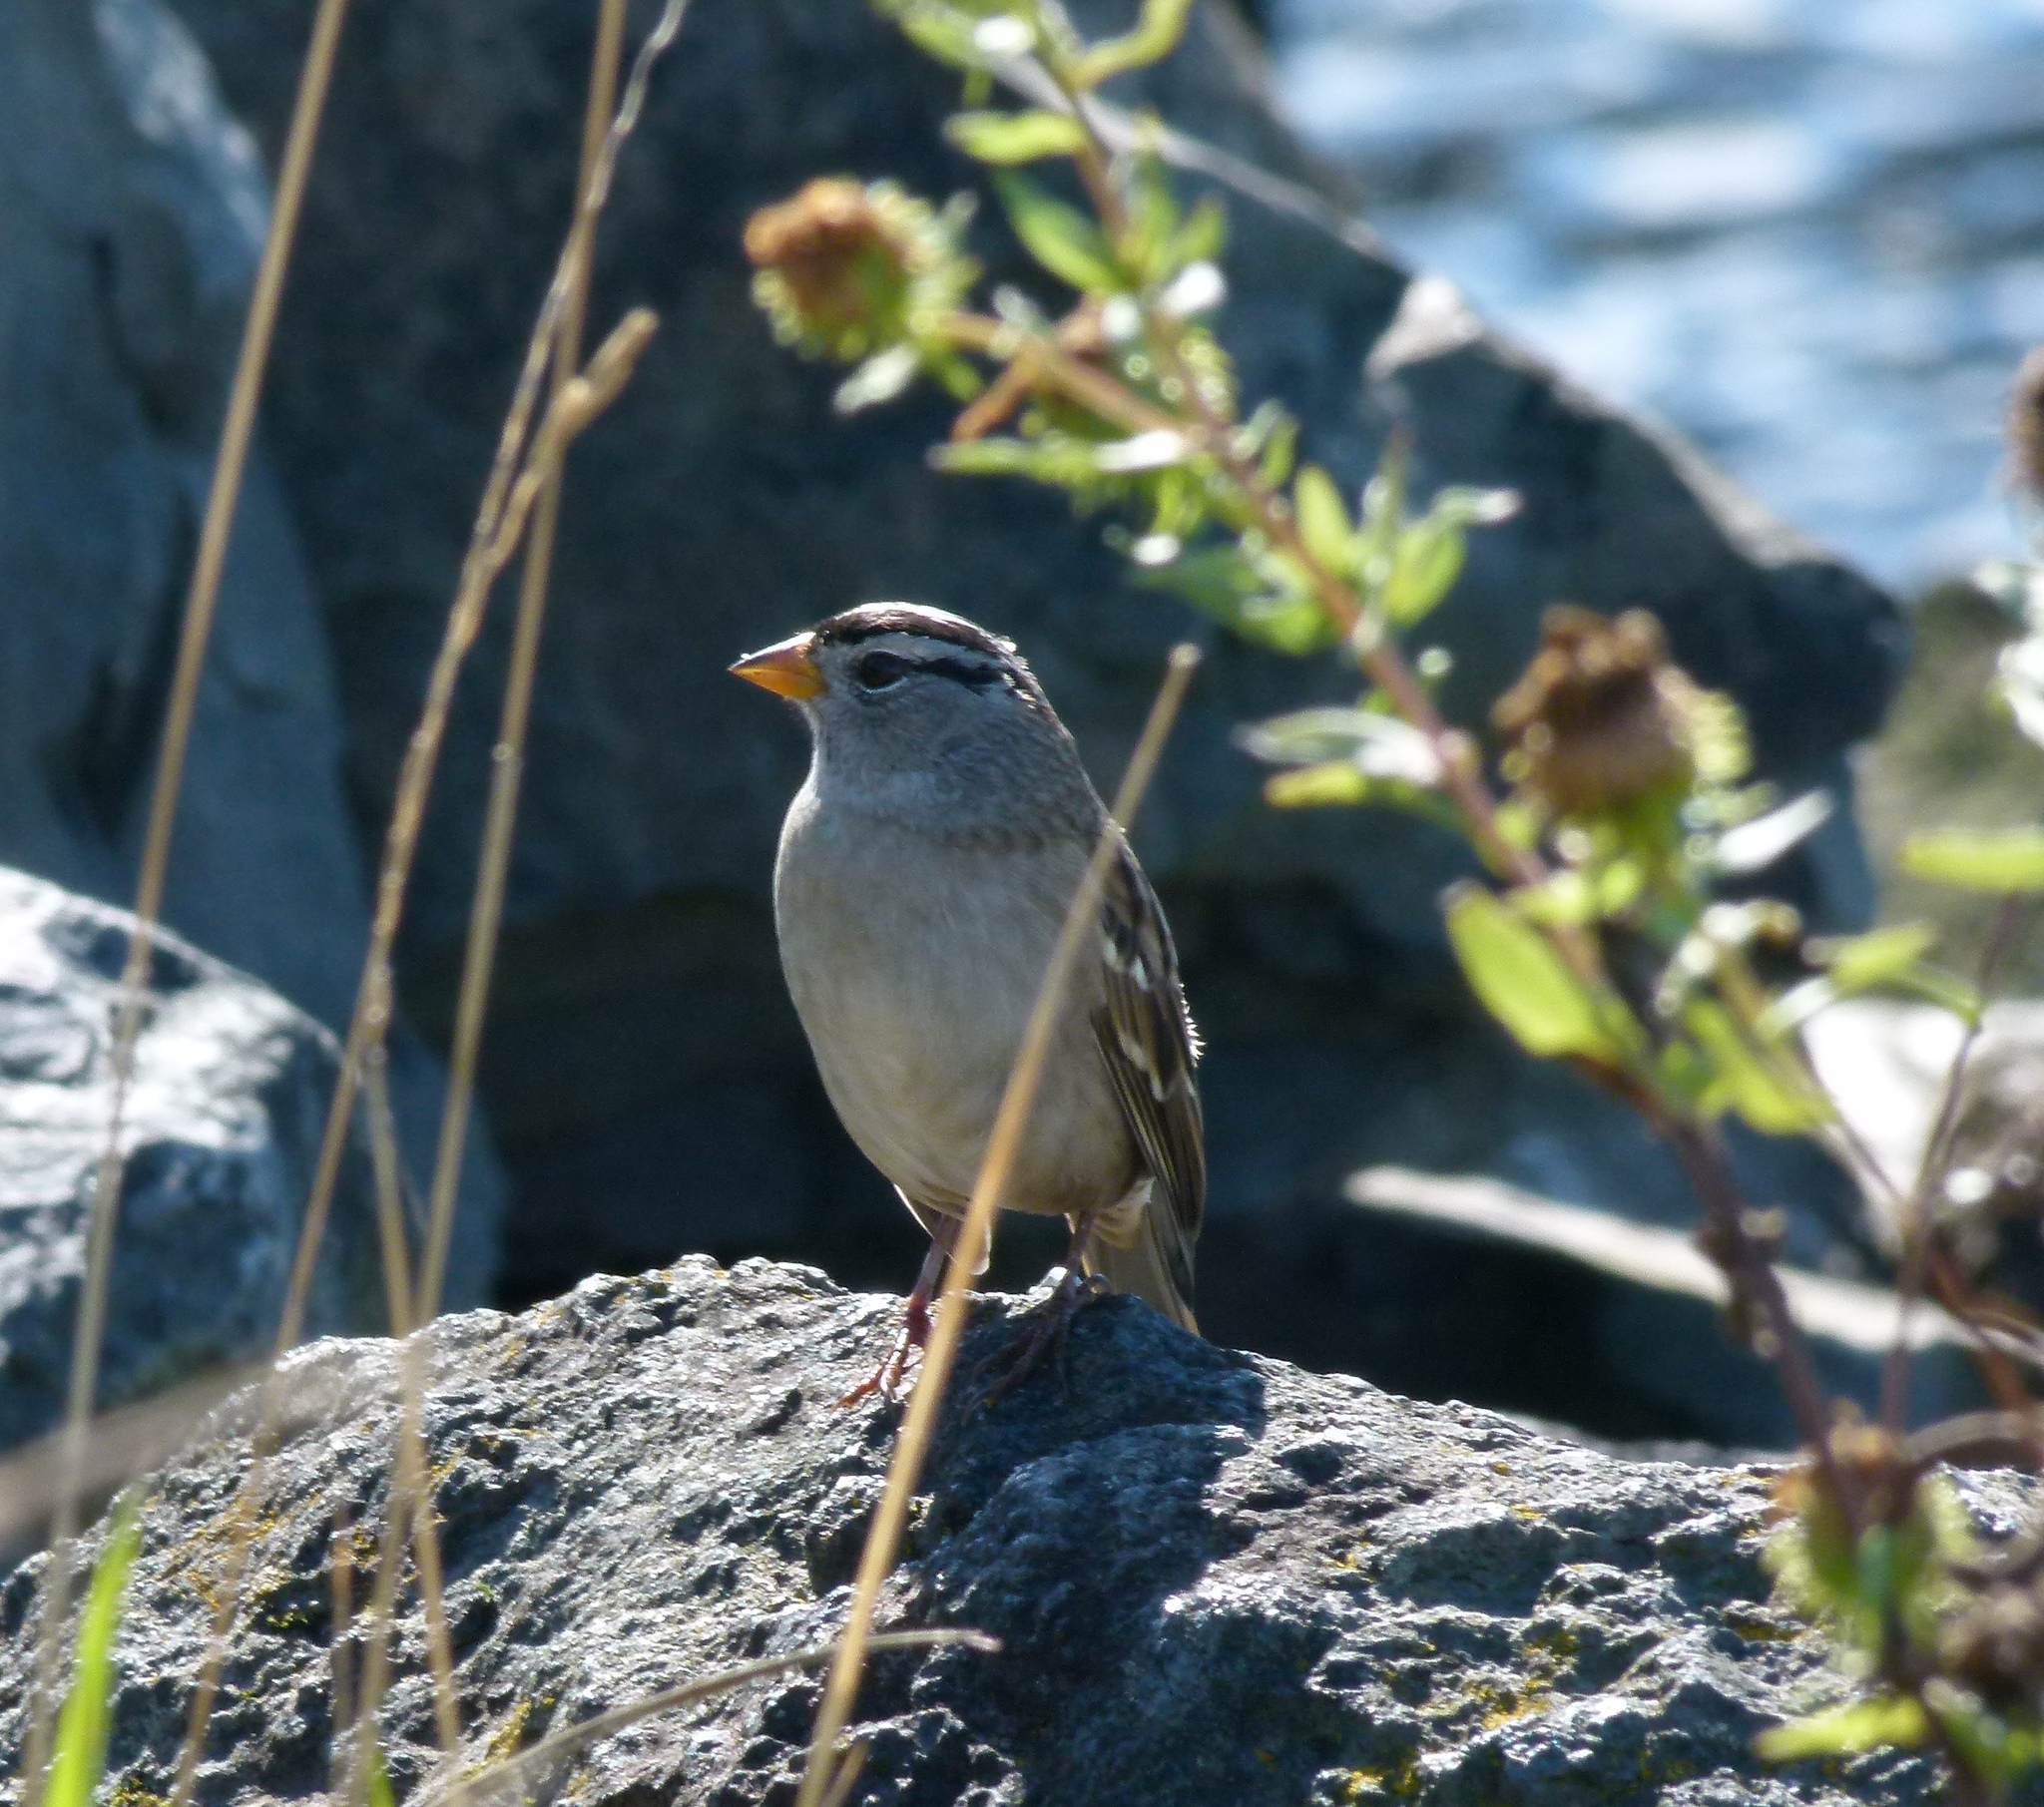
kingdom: Animalia
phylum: Chordata
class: Aves
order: Passeriformes
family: Passerellidae
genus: Zonotrichia
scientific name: Zonotrichia leucophrys
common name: White-crowned sparrow
